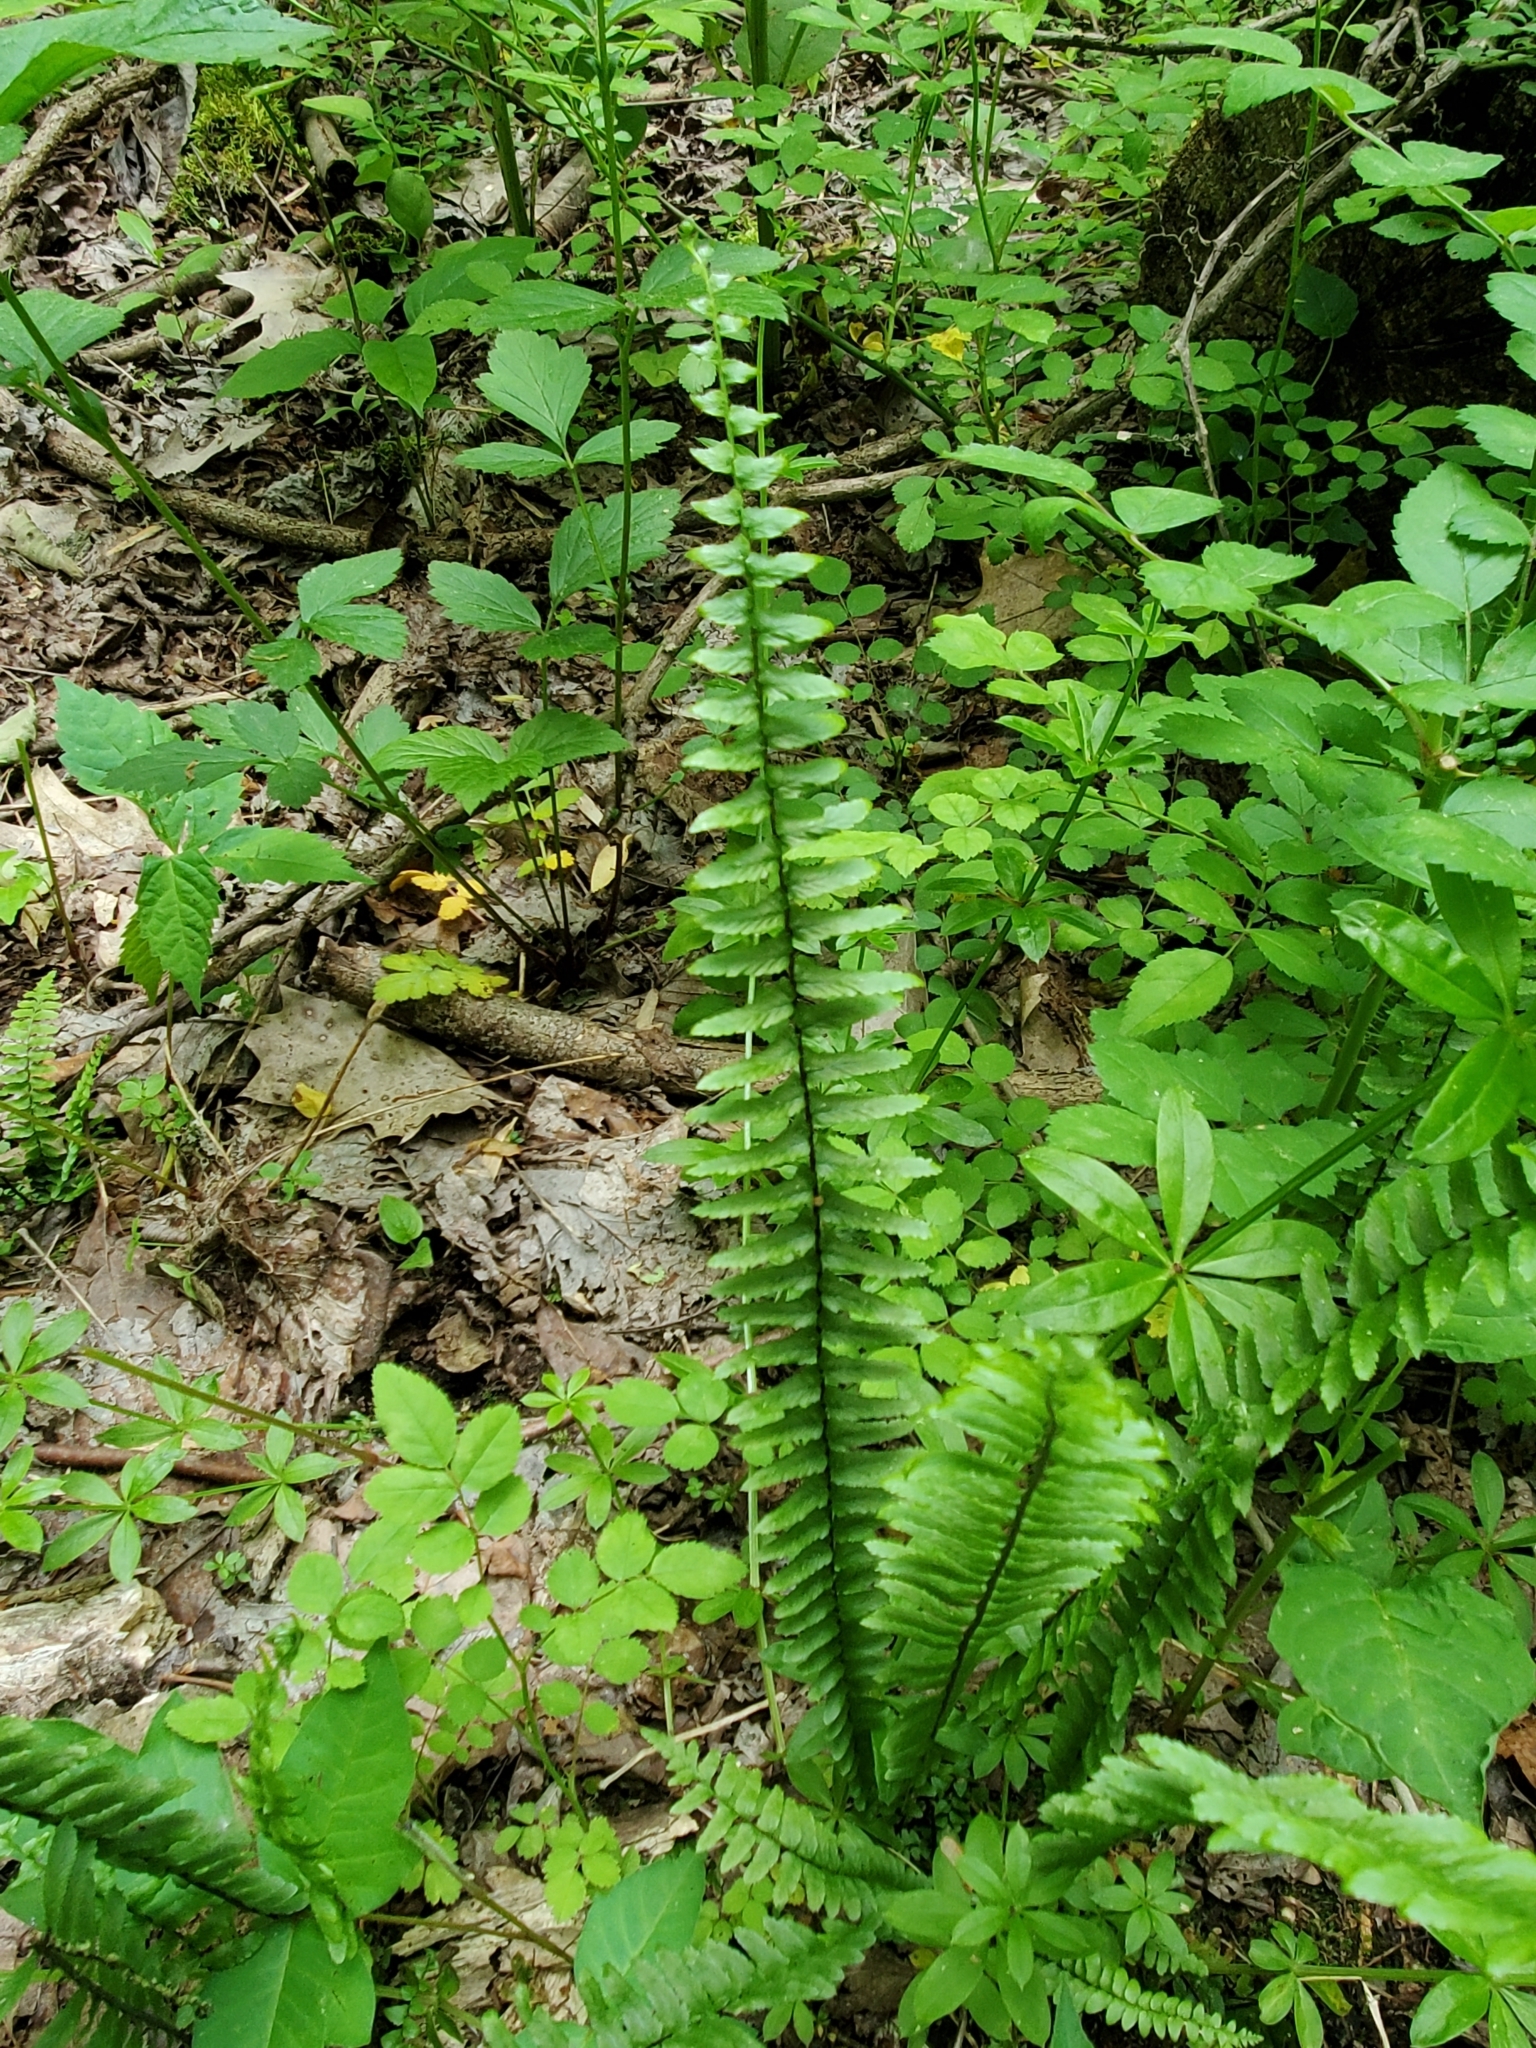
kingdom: Plantae
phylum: Tracheophyta
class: Polypodiopsida
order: Polypodiales
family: Aspleniaceae
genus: Asplenium
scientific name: Asplenium platyneuron
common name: Ebony spleenwort
